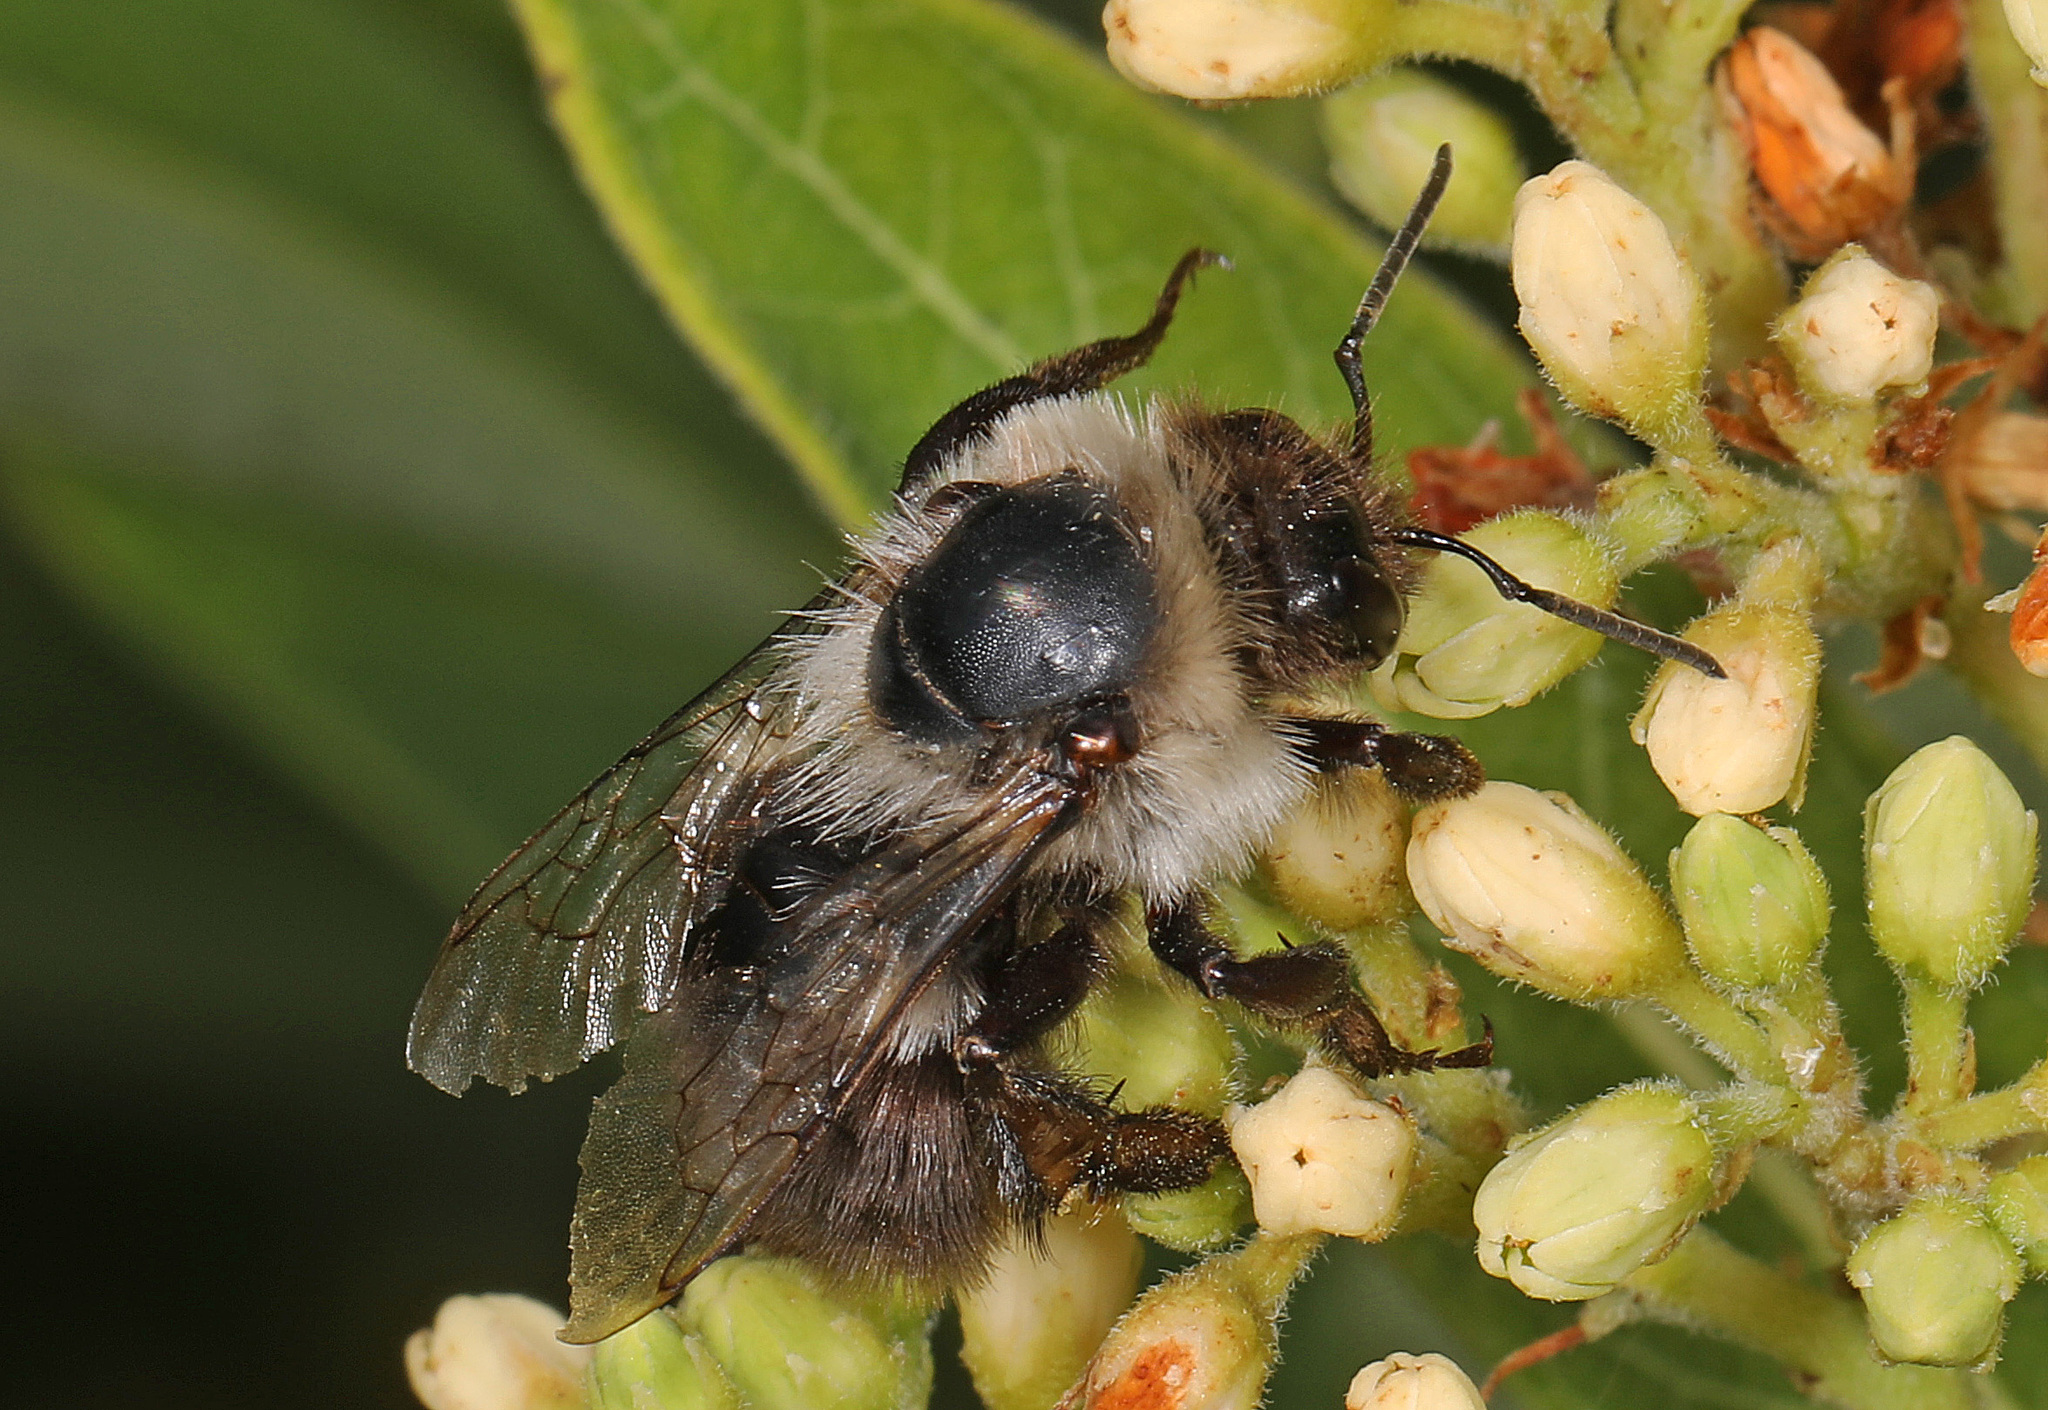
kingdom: Animalia
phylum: Arthropoda
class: Insecta
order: Hymenoptera
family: Apidae
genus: Bombus
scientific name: Bombus impatiens
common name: Common eastern bumble bee
